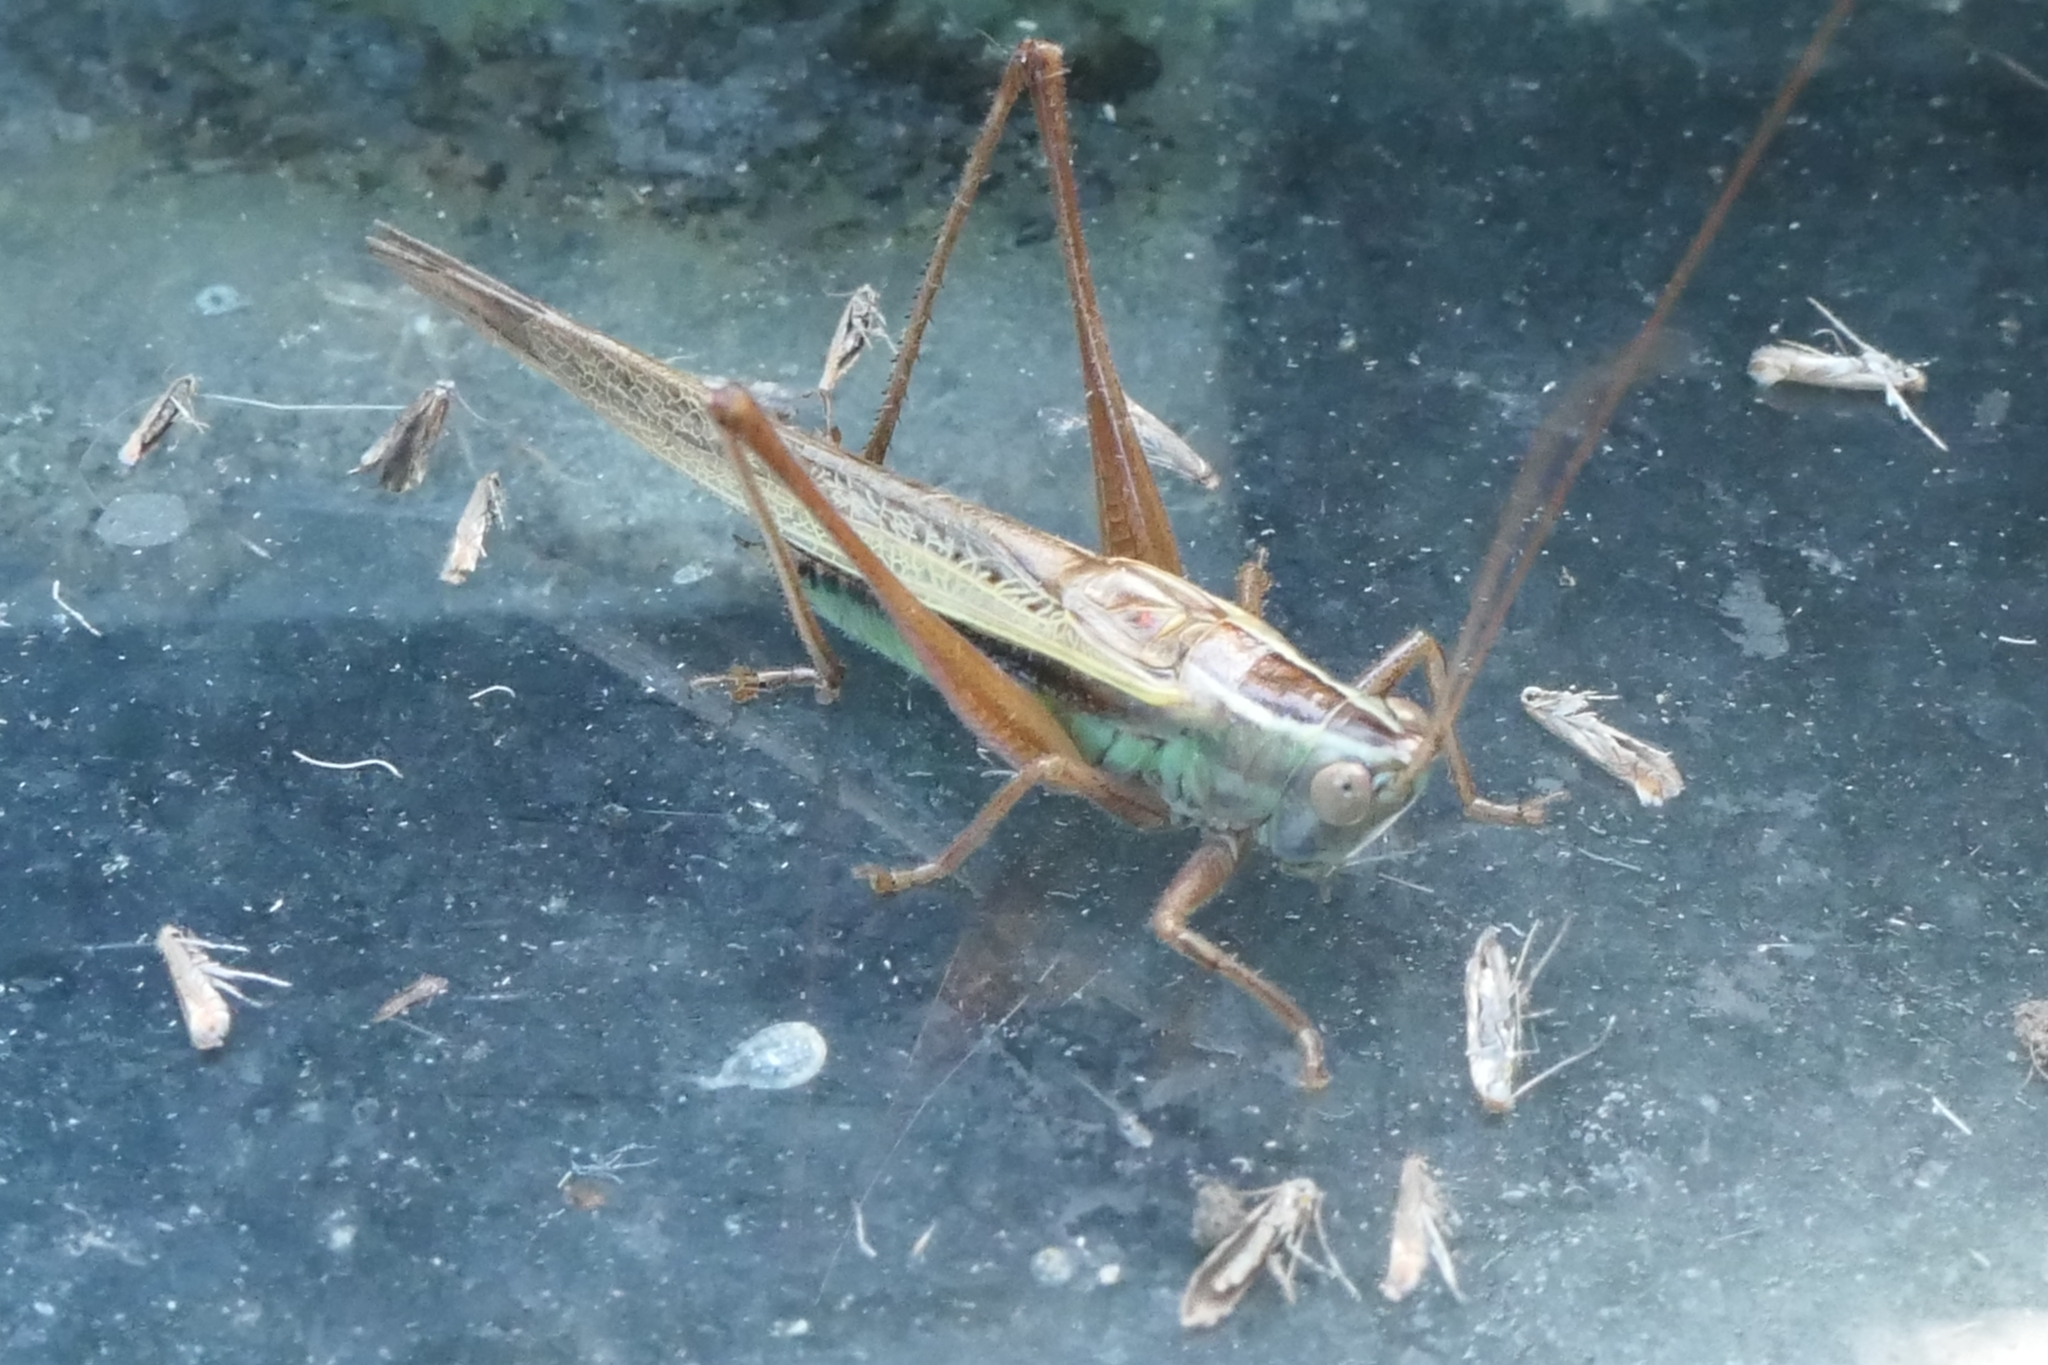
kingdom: Animalia
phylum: Arthropoda
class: Insecta
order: Orthoptera
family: Tettigoniidae
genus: Conocephalus
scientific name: Conocephalus albescens
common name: Whitish meadow katydid
